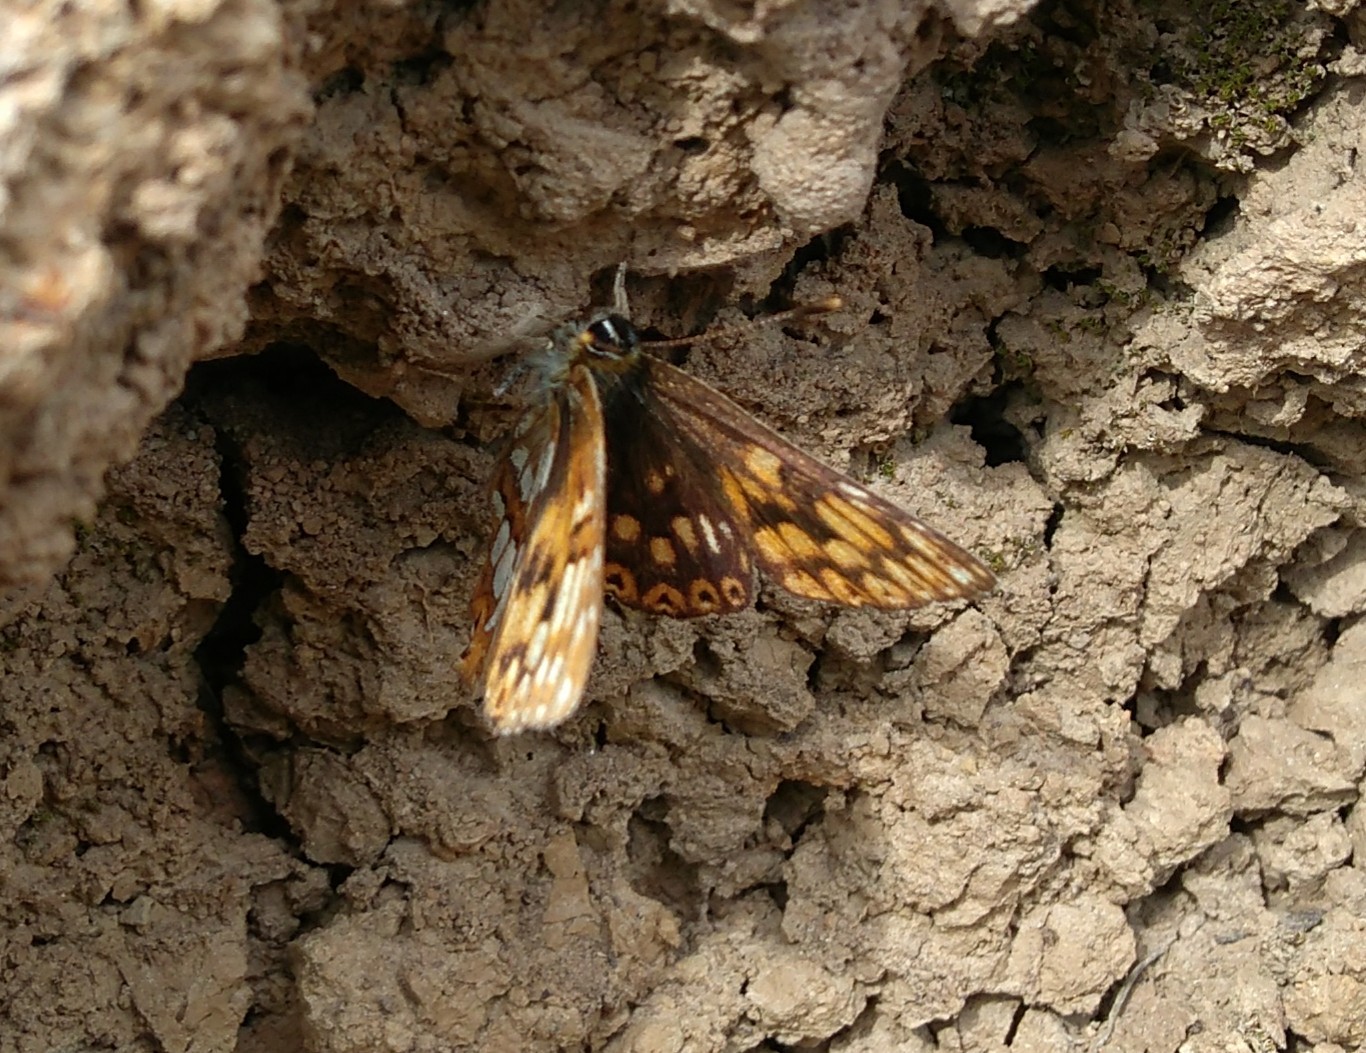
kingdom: Animalia
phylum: Arthropoda
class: Insecta
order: Lepidoptera
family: Riodinidae
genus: Hamearis
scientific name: Hamearis lucina
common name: Duke of burgundy fritillary
